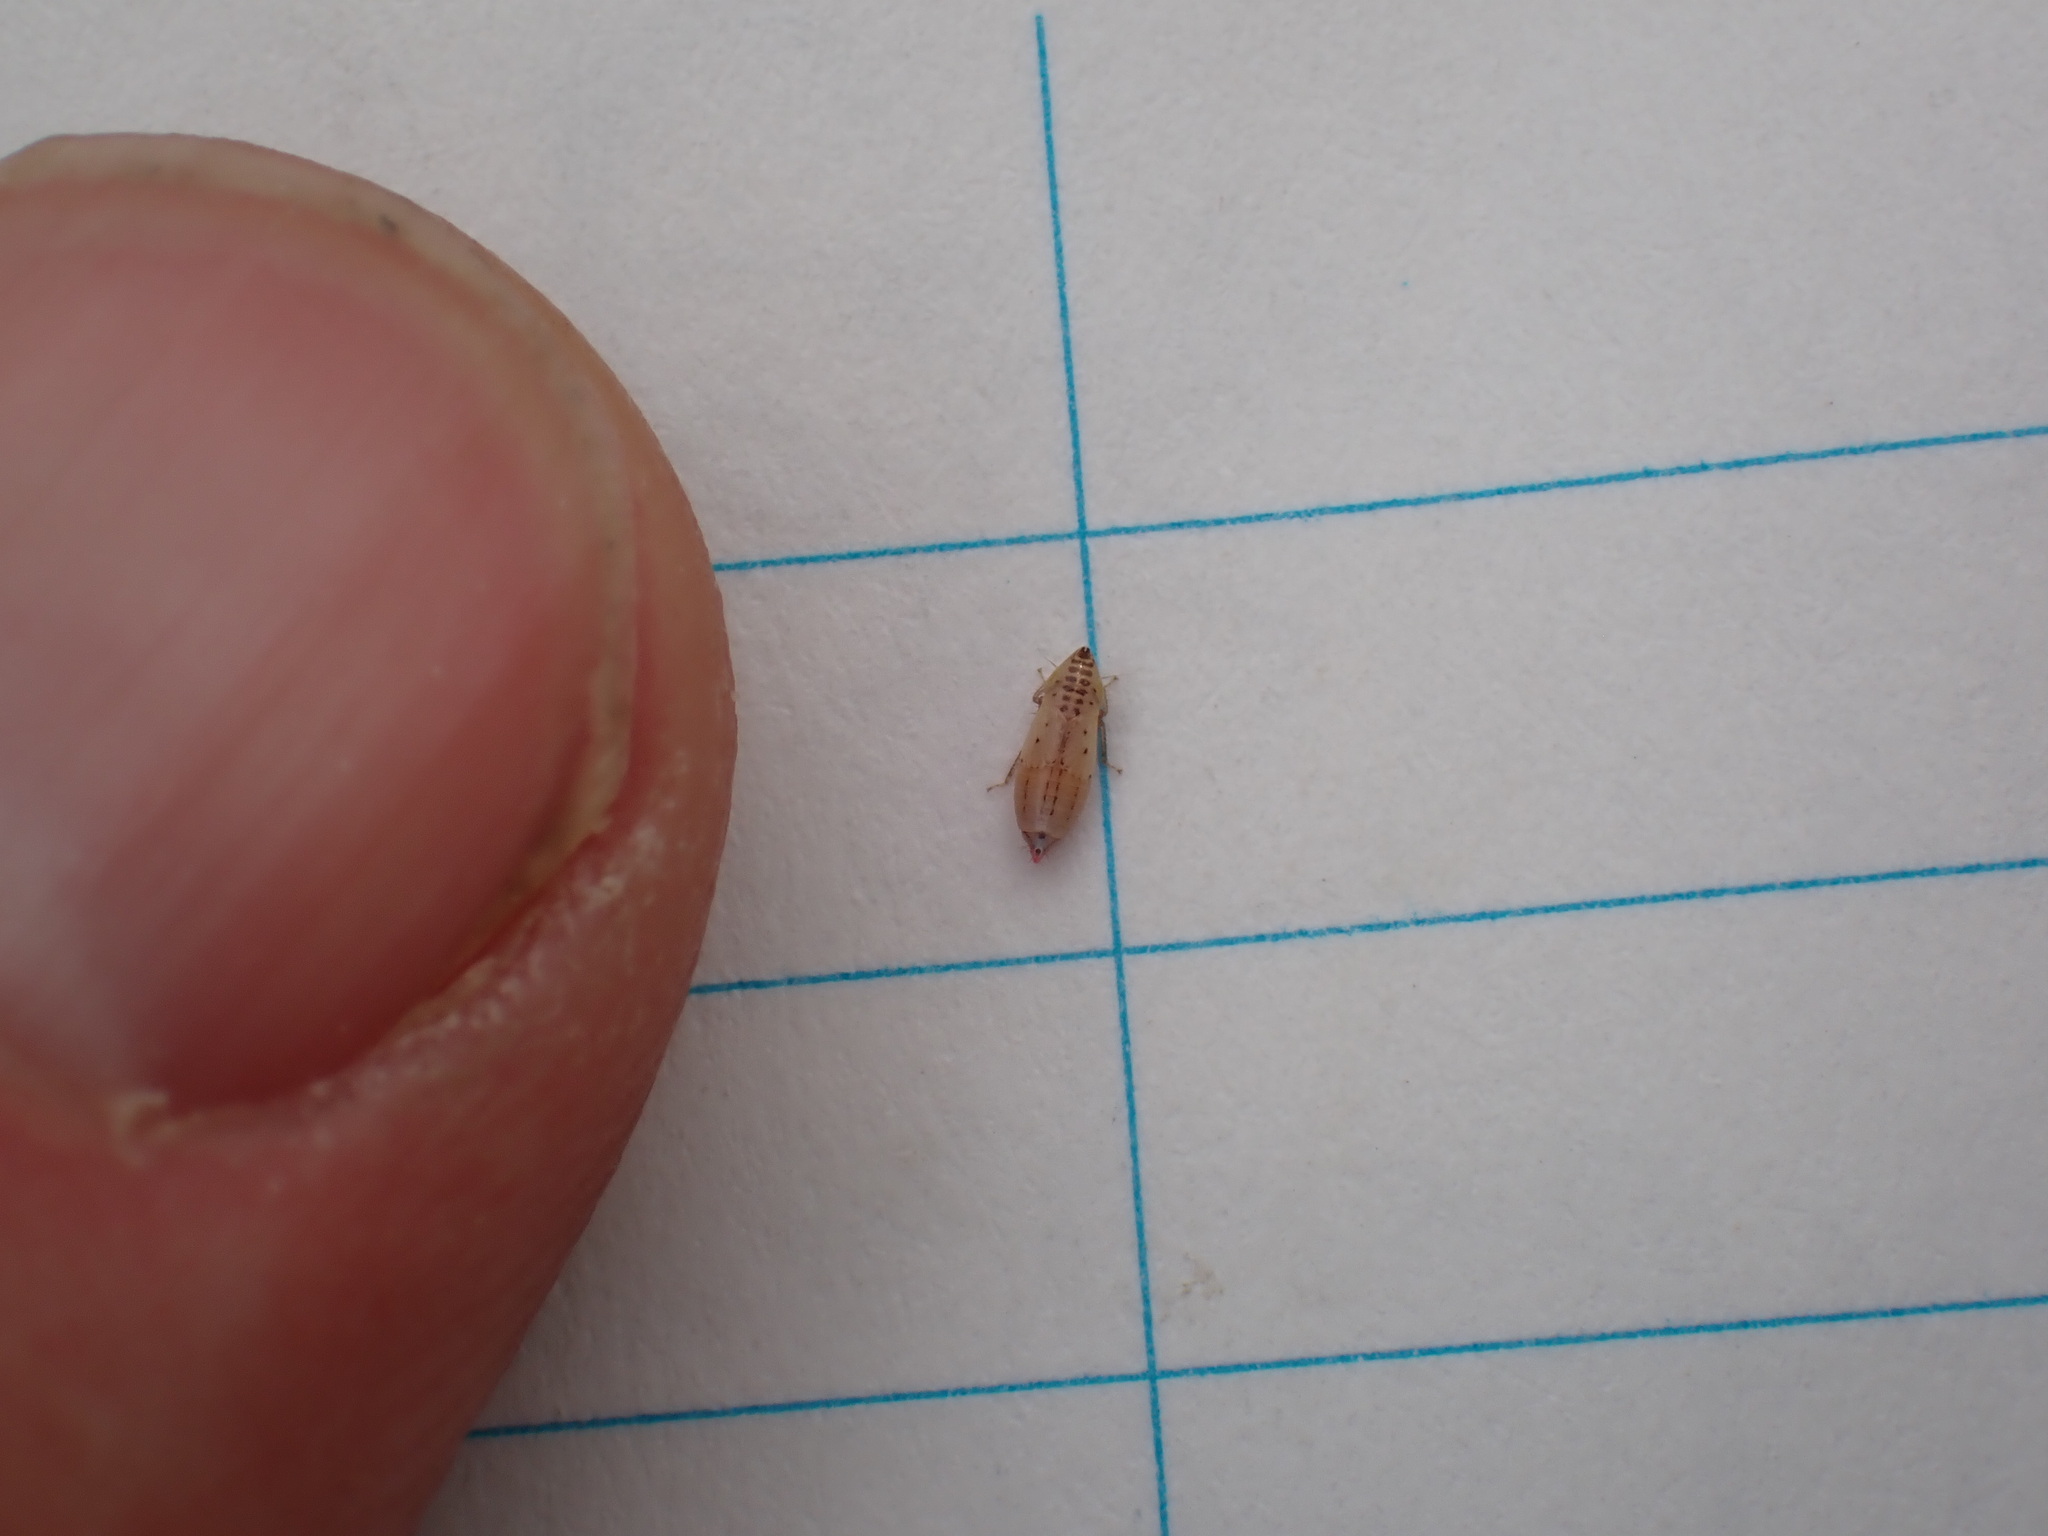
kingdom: Animalia
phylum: Arthropoda
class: Insecta
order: Hemiptera
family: Cicadellidae
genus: Aflexia
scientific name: Aflexia rubranura
